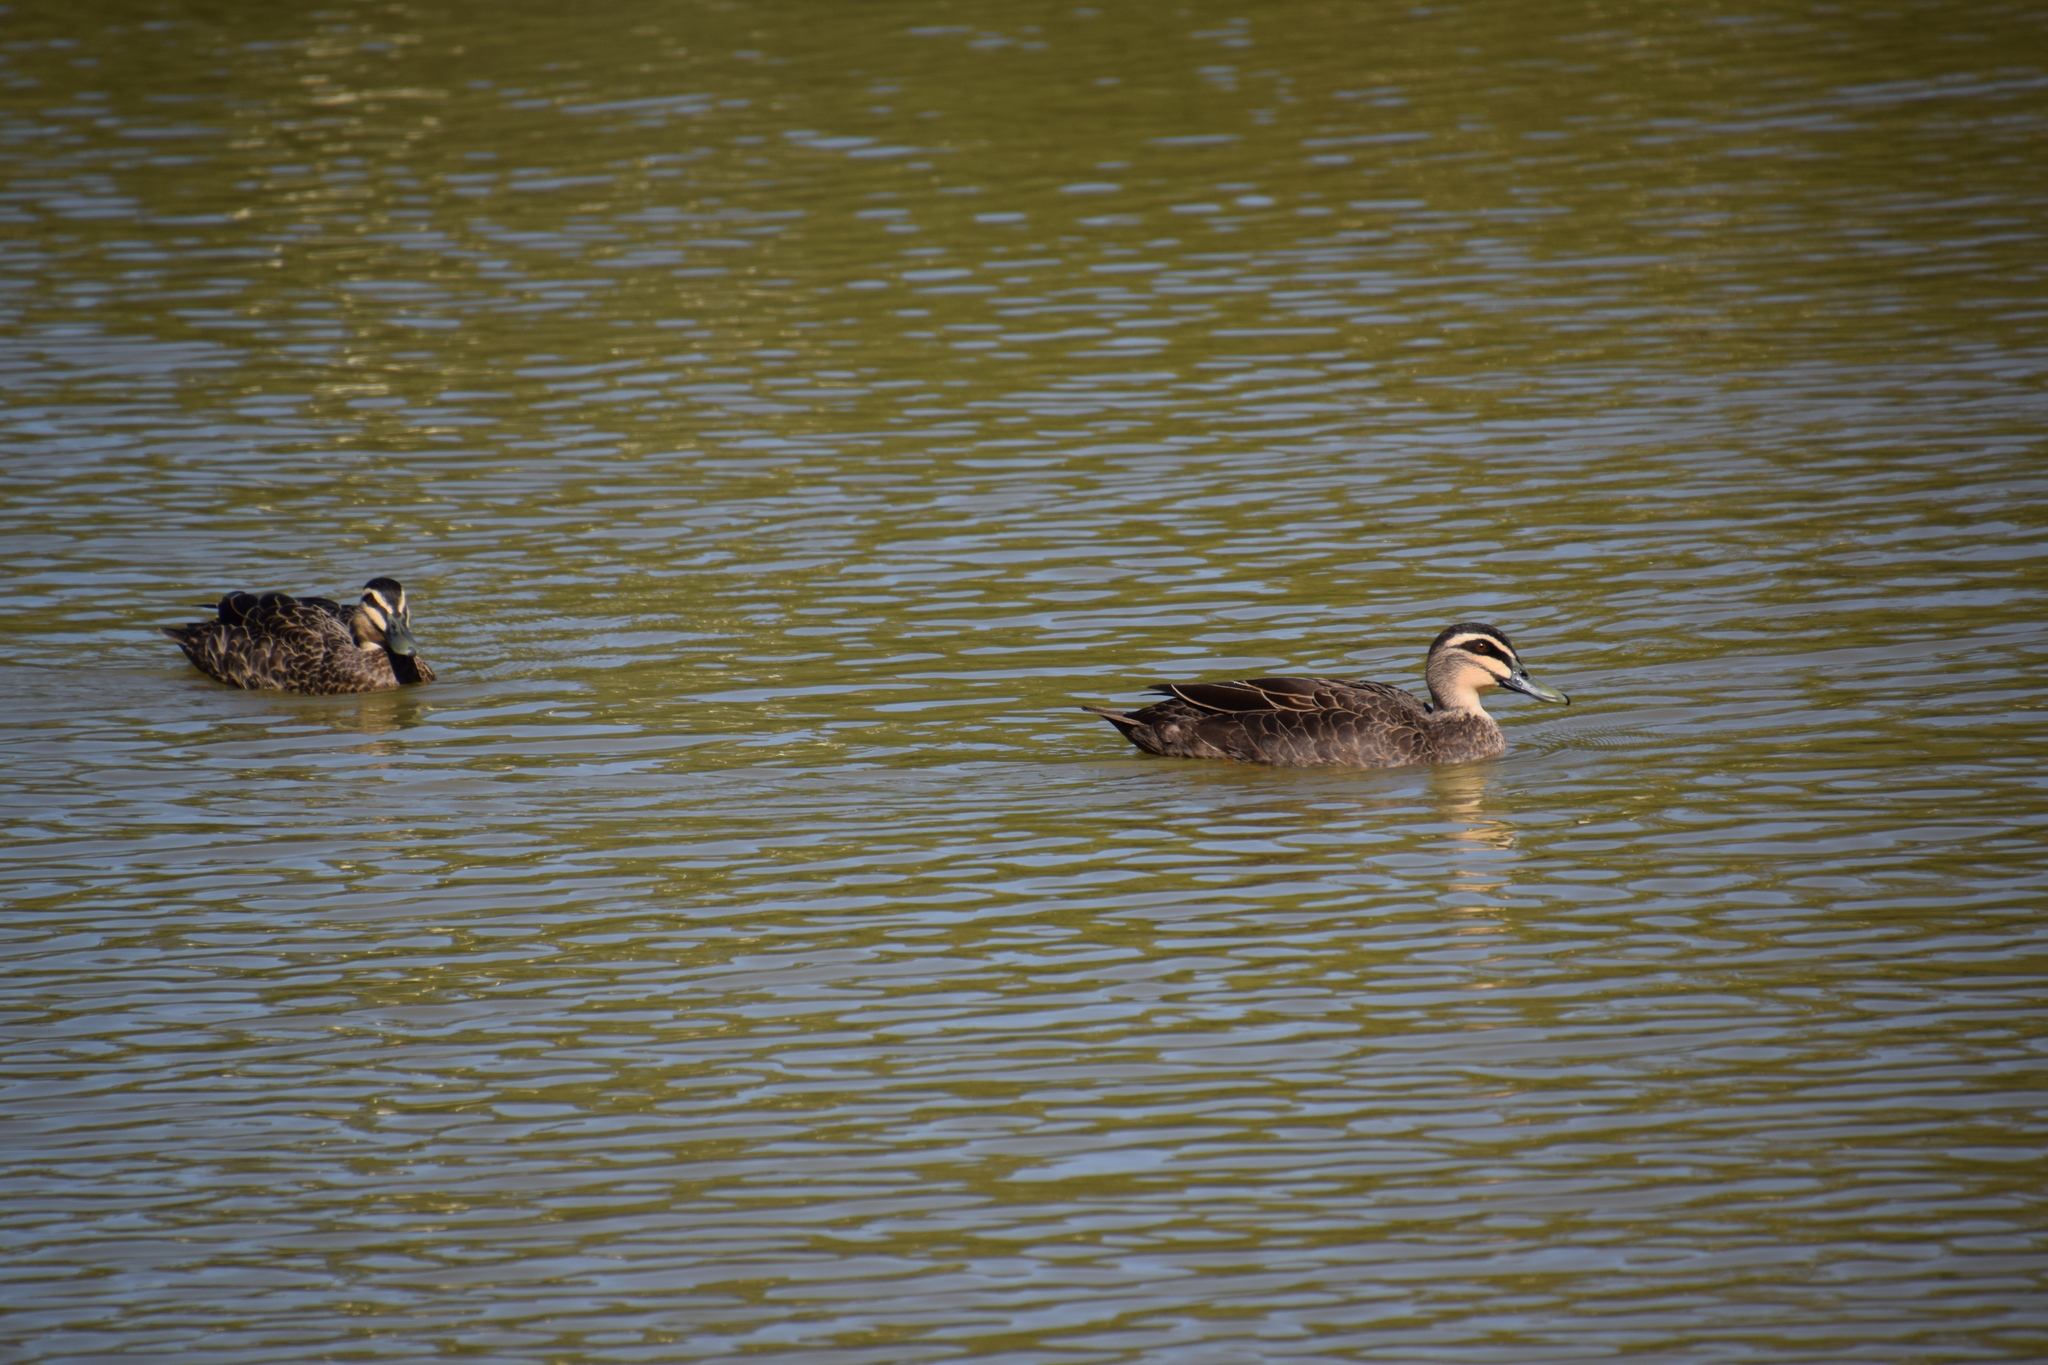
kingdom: Animalia
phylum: Chordata
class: Aves
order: Anseriformes
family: Anatidae
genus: Anas
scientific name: Anas superciliosa
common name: Pacific black duck
